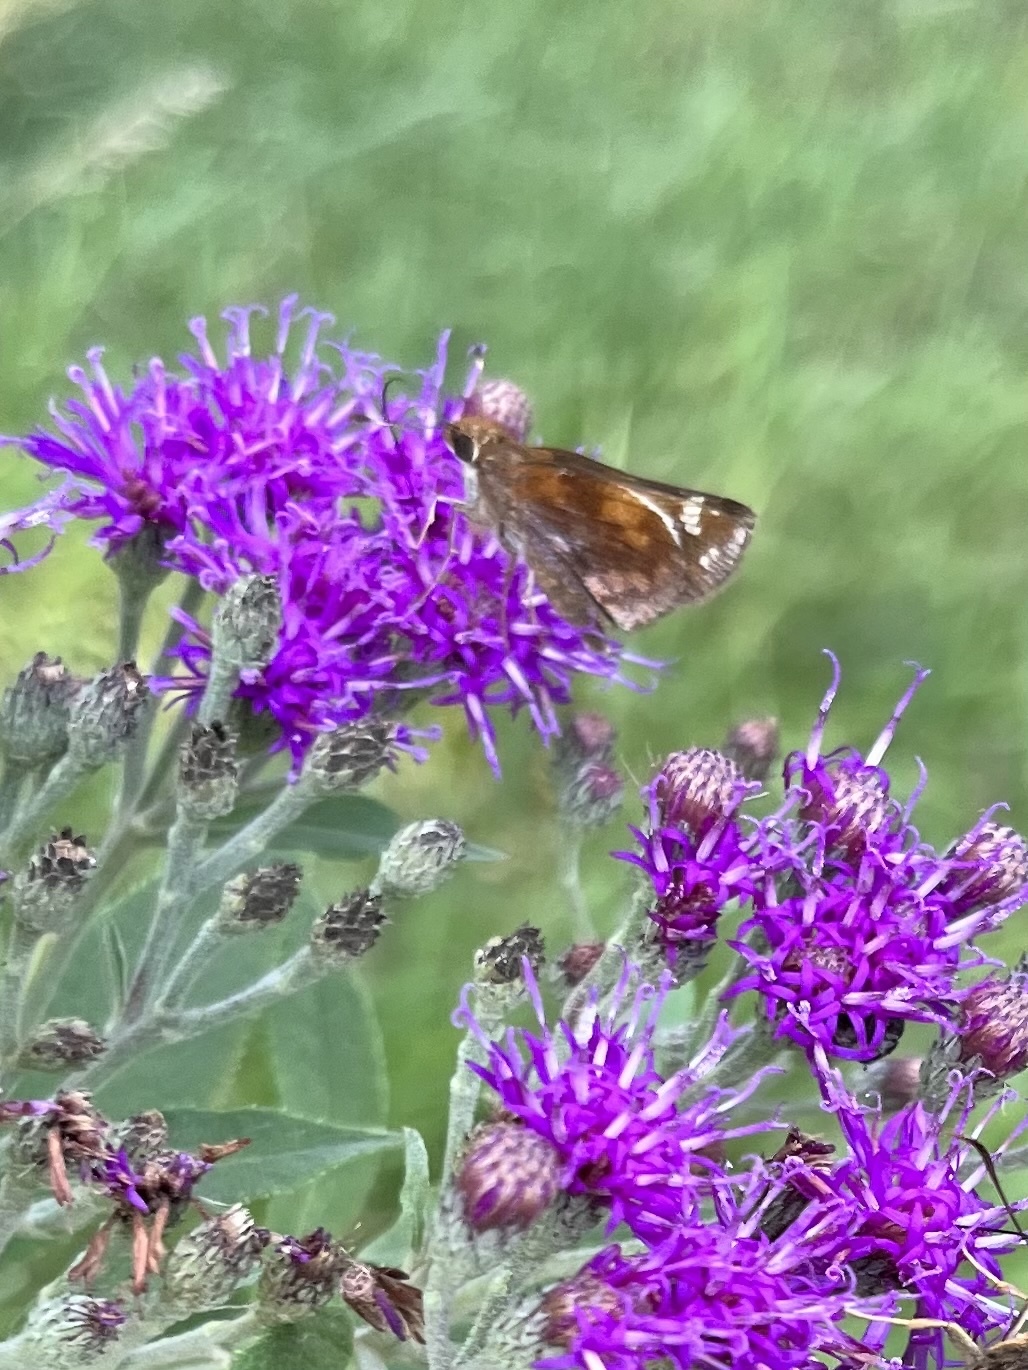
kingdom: Animalia
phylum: Arthropoda
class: Insecta
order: Lepidoptera
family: Hesperiidae
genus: Lon
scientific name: Lon zabulon
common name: Zabulon skipper
